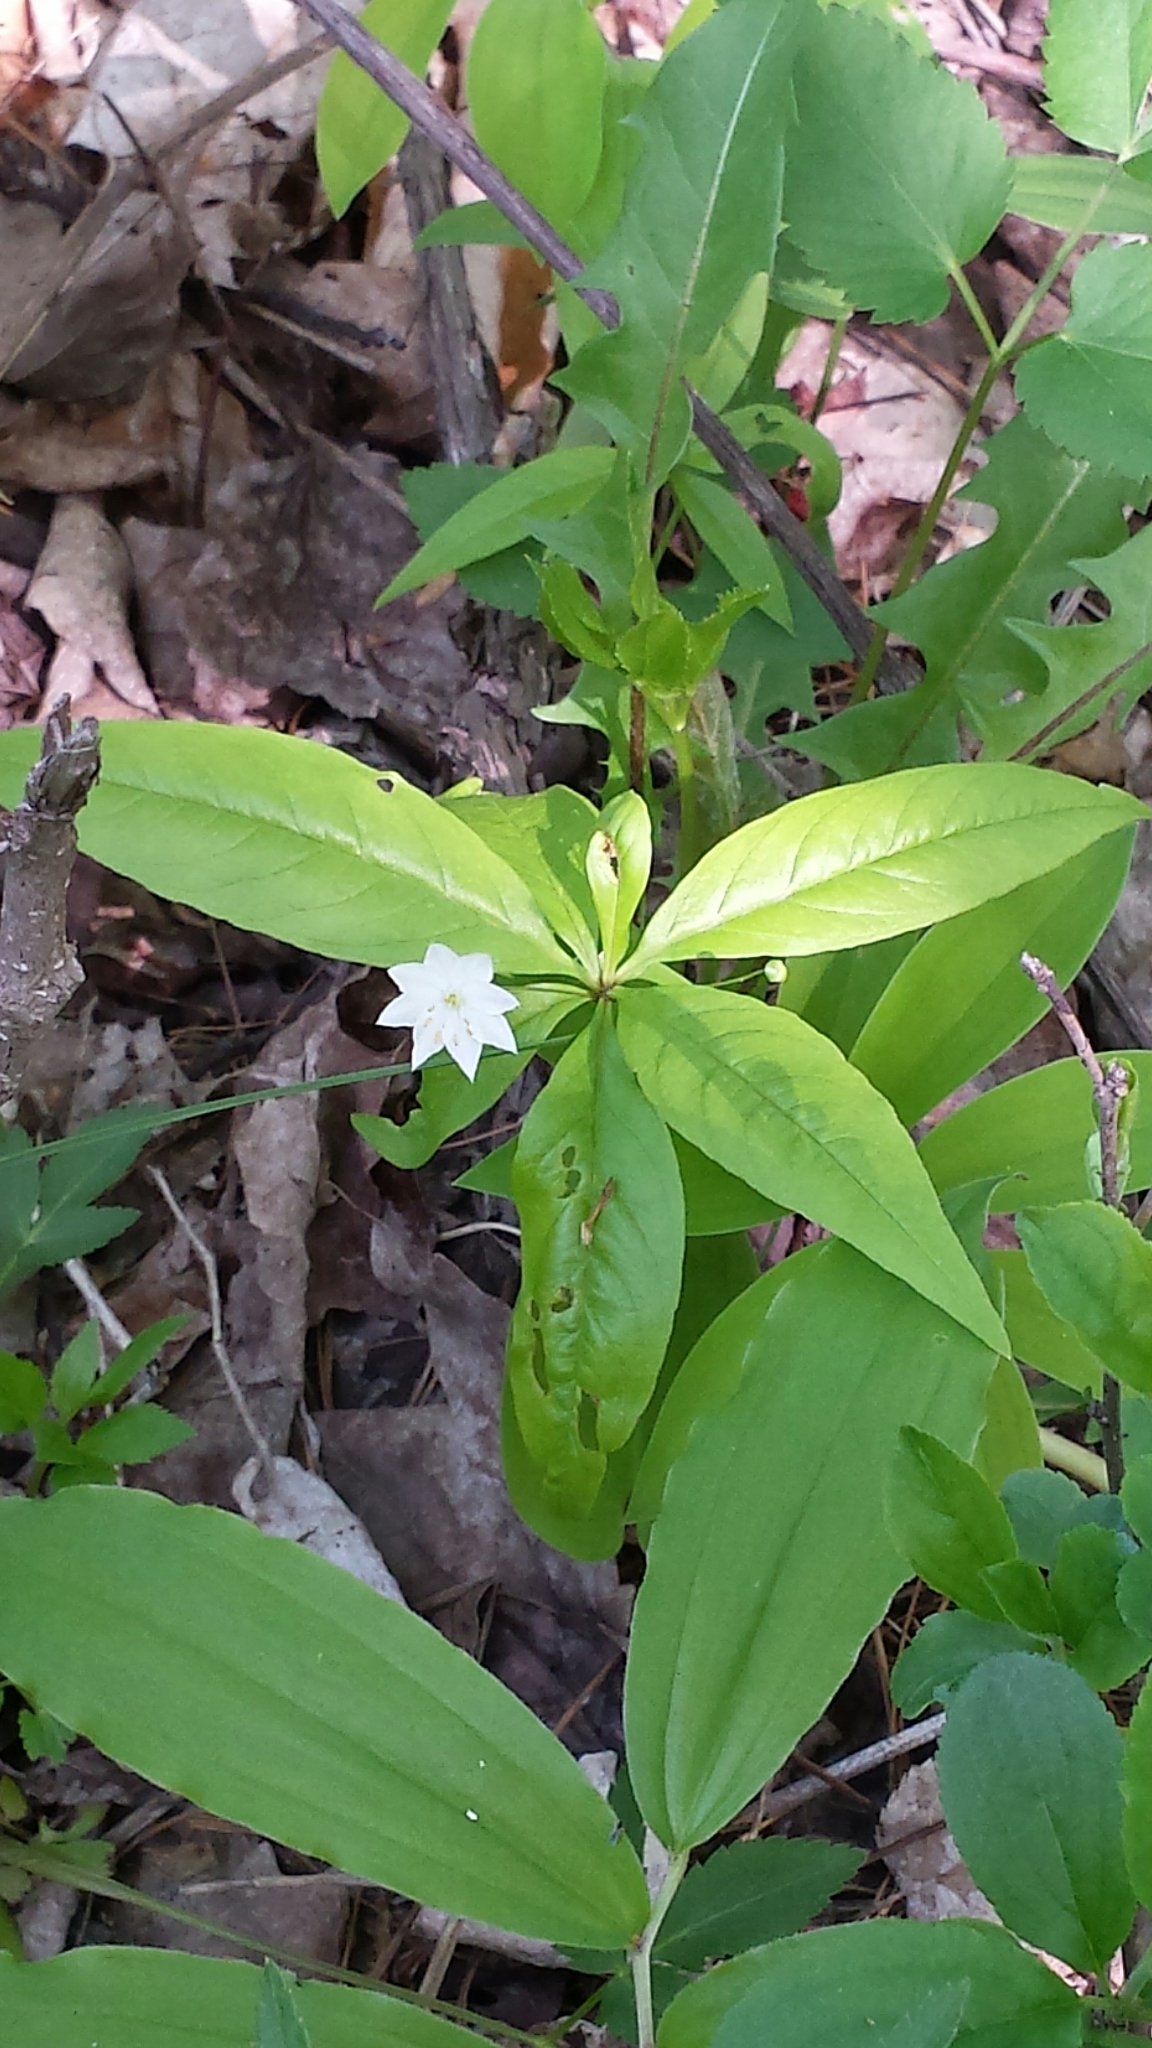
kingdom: Plantae
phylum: Tracheophyta
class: Magnoliopsida
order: Ericales
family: Primulaceae
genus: Lysimachia
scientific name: Lysimachia borealis
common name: American starflower
